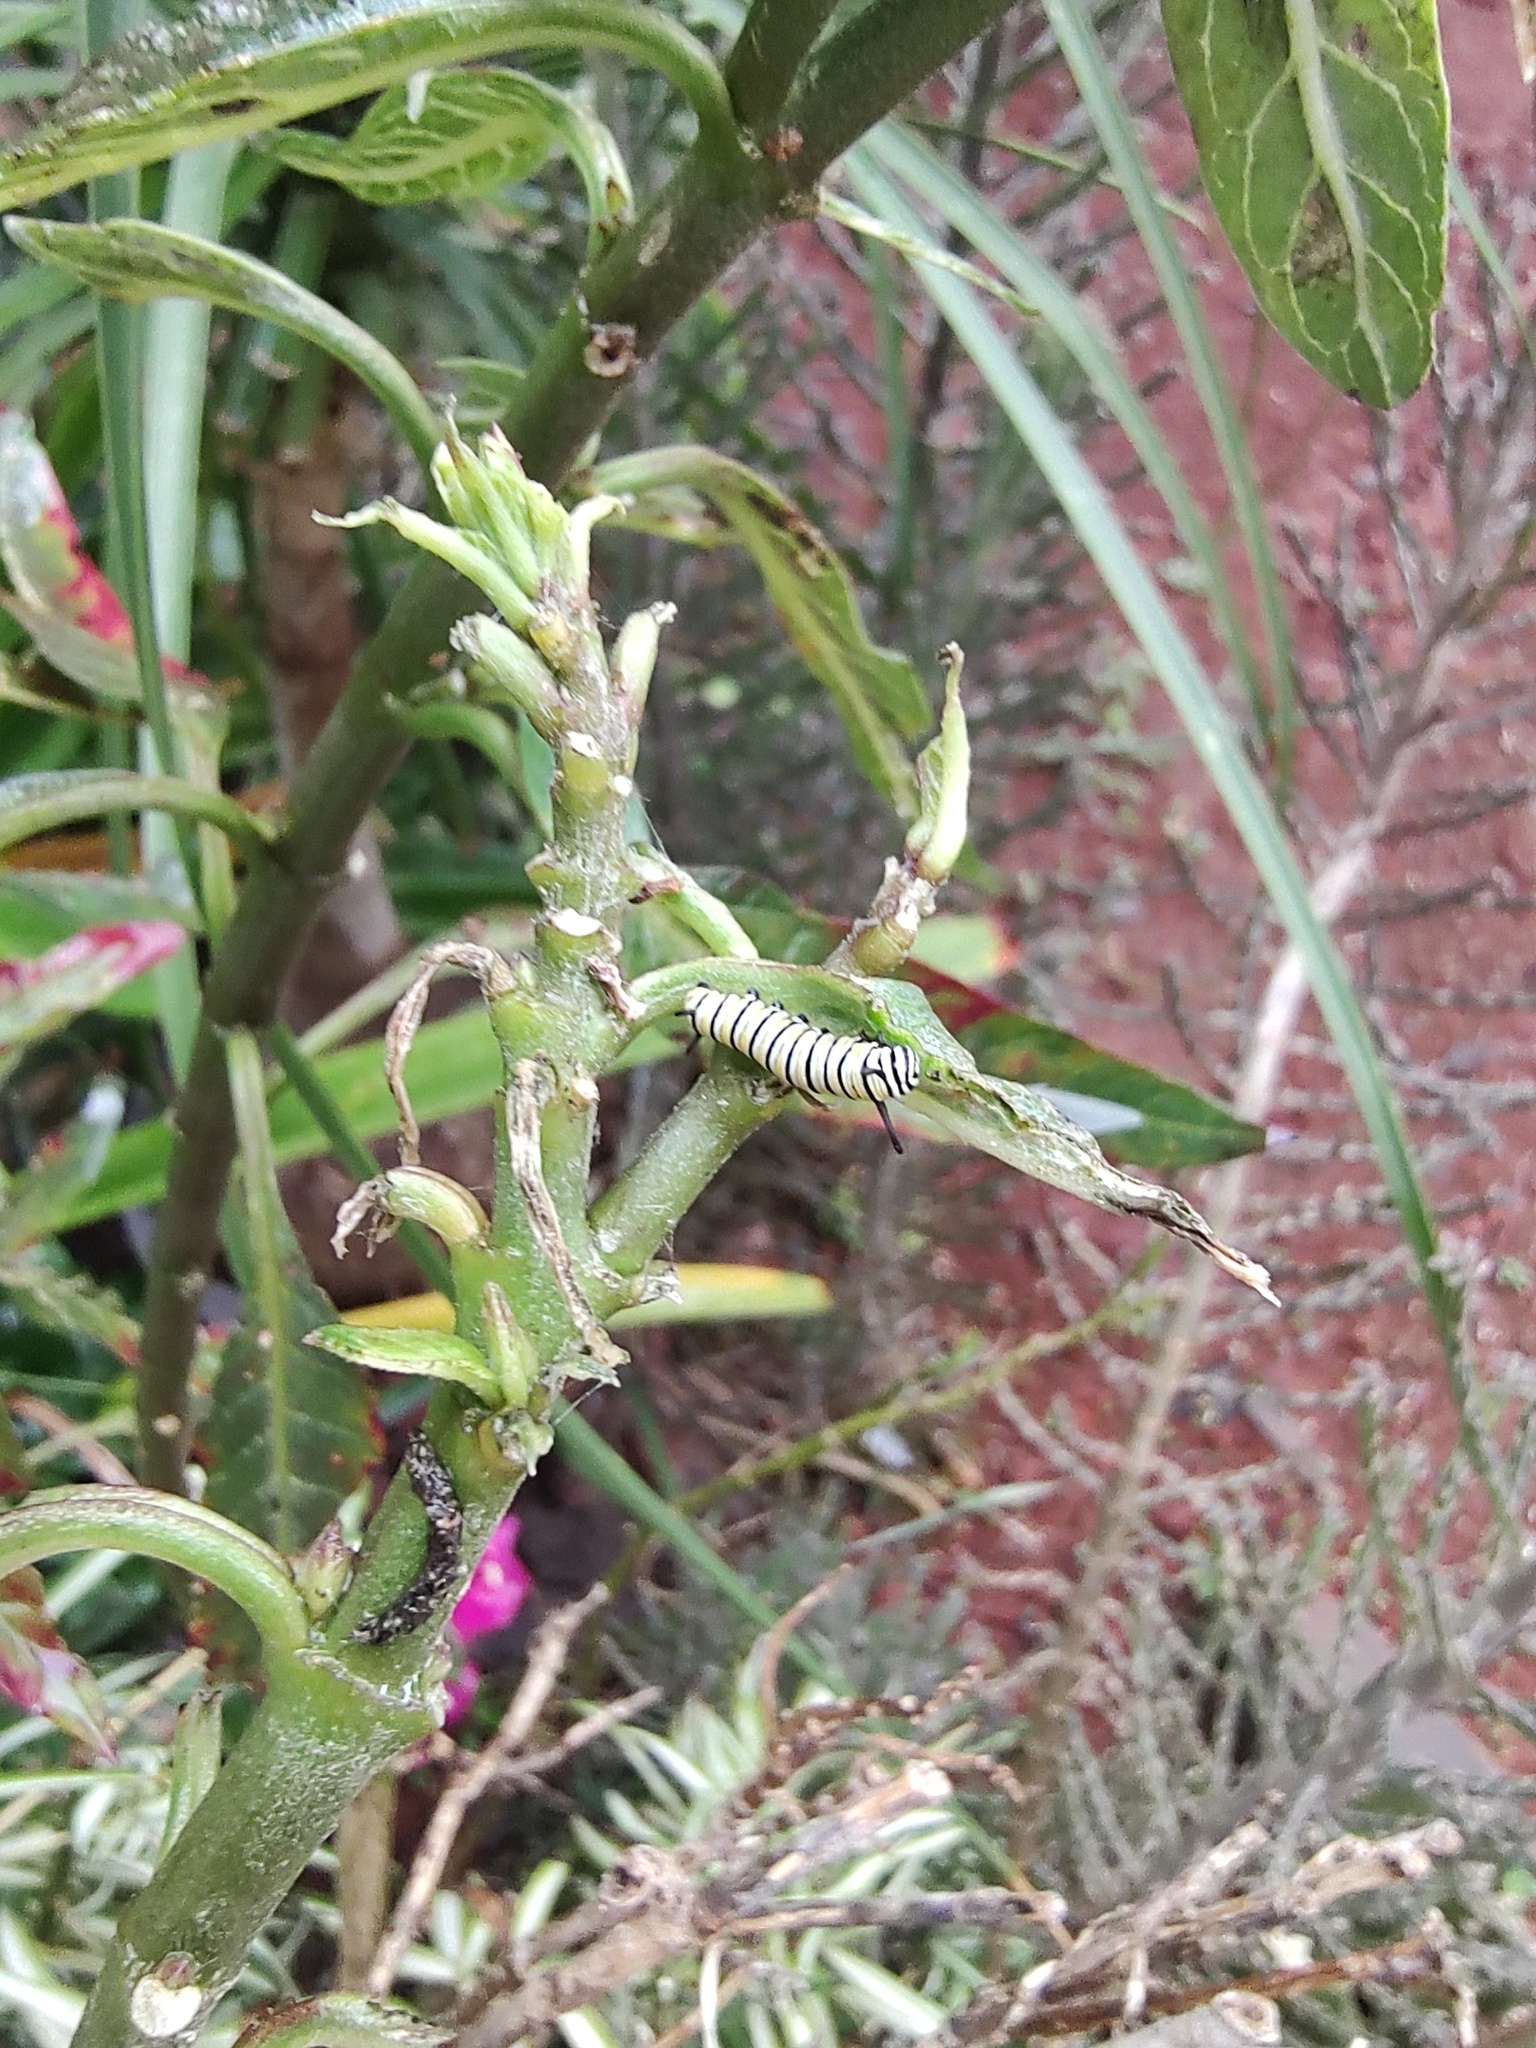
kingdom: Animalia
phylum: Arthropoda
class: Insecta
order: Lepidoptera
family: Nymphalidae
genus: Danaus
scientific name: Danaus plexippus
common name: Monarch
